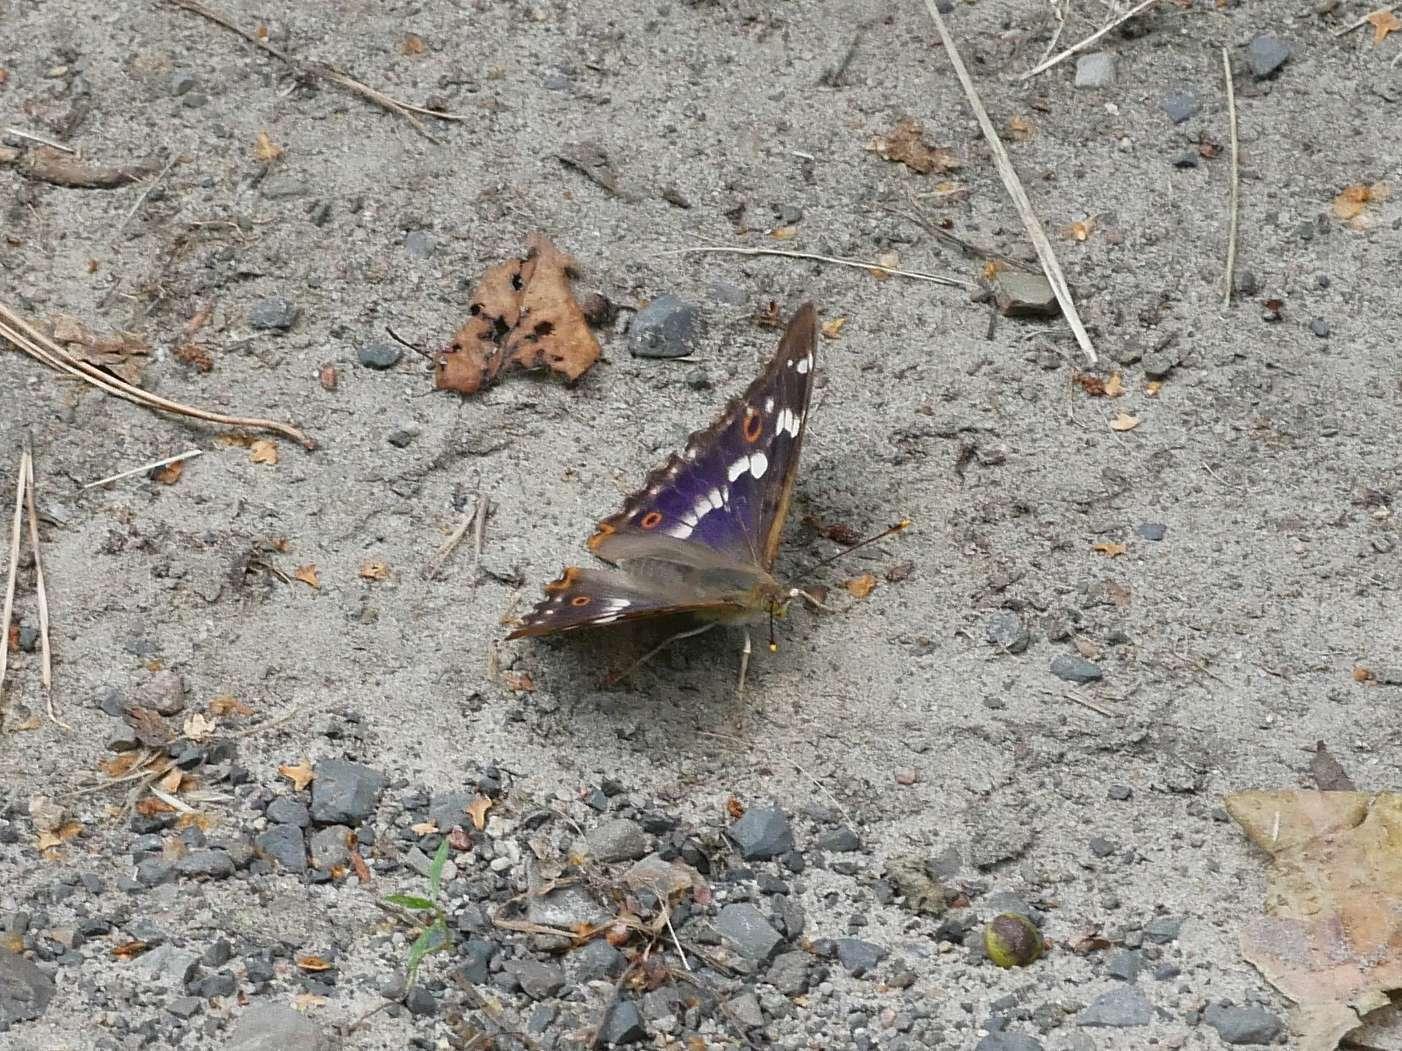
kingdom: Animalia
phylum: Arthropoda
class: Insecta
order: Lepidoptera
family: Nymphalidae
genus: Apatura
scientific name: Apatura ilia
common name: Lesser purple emperor
